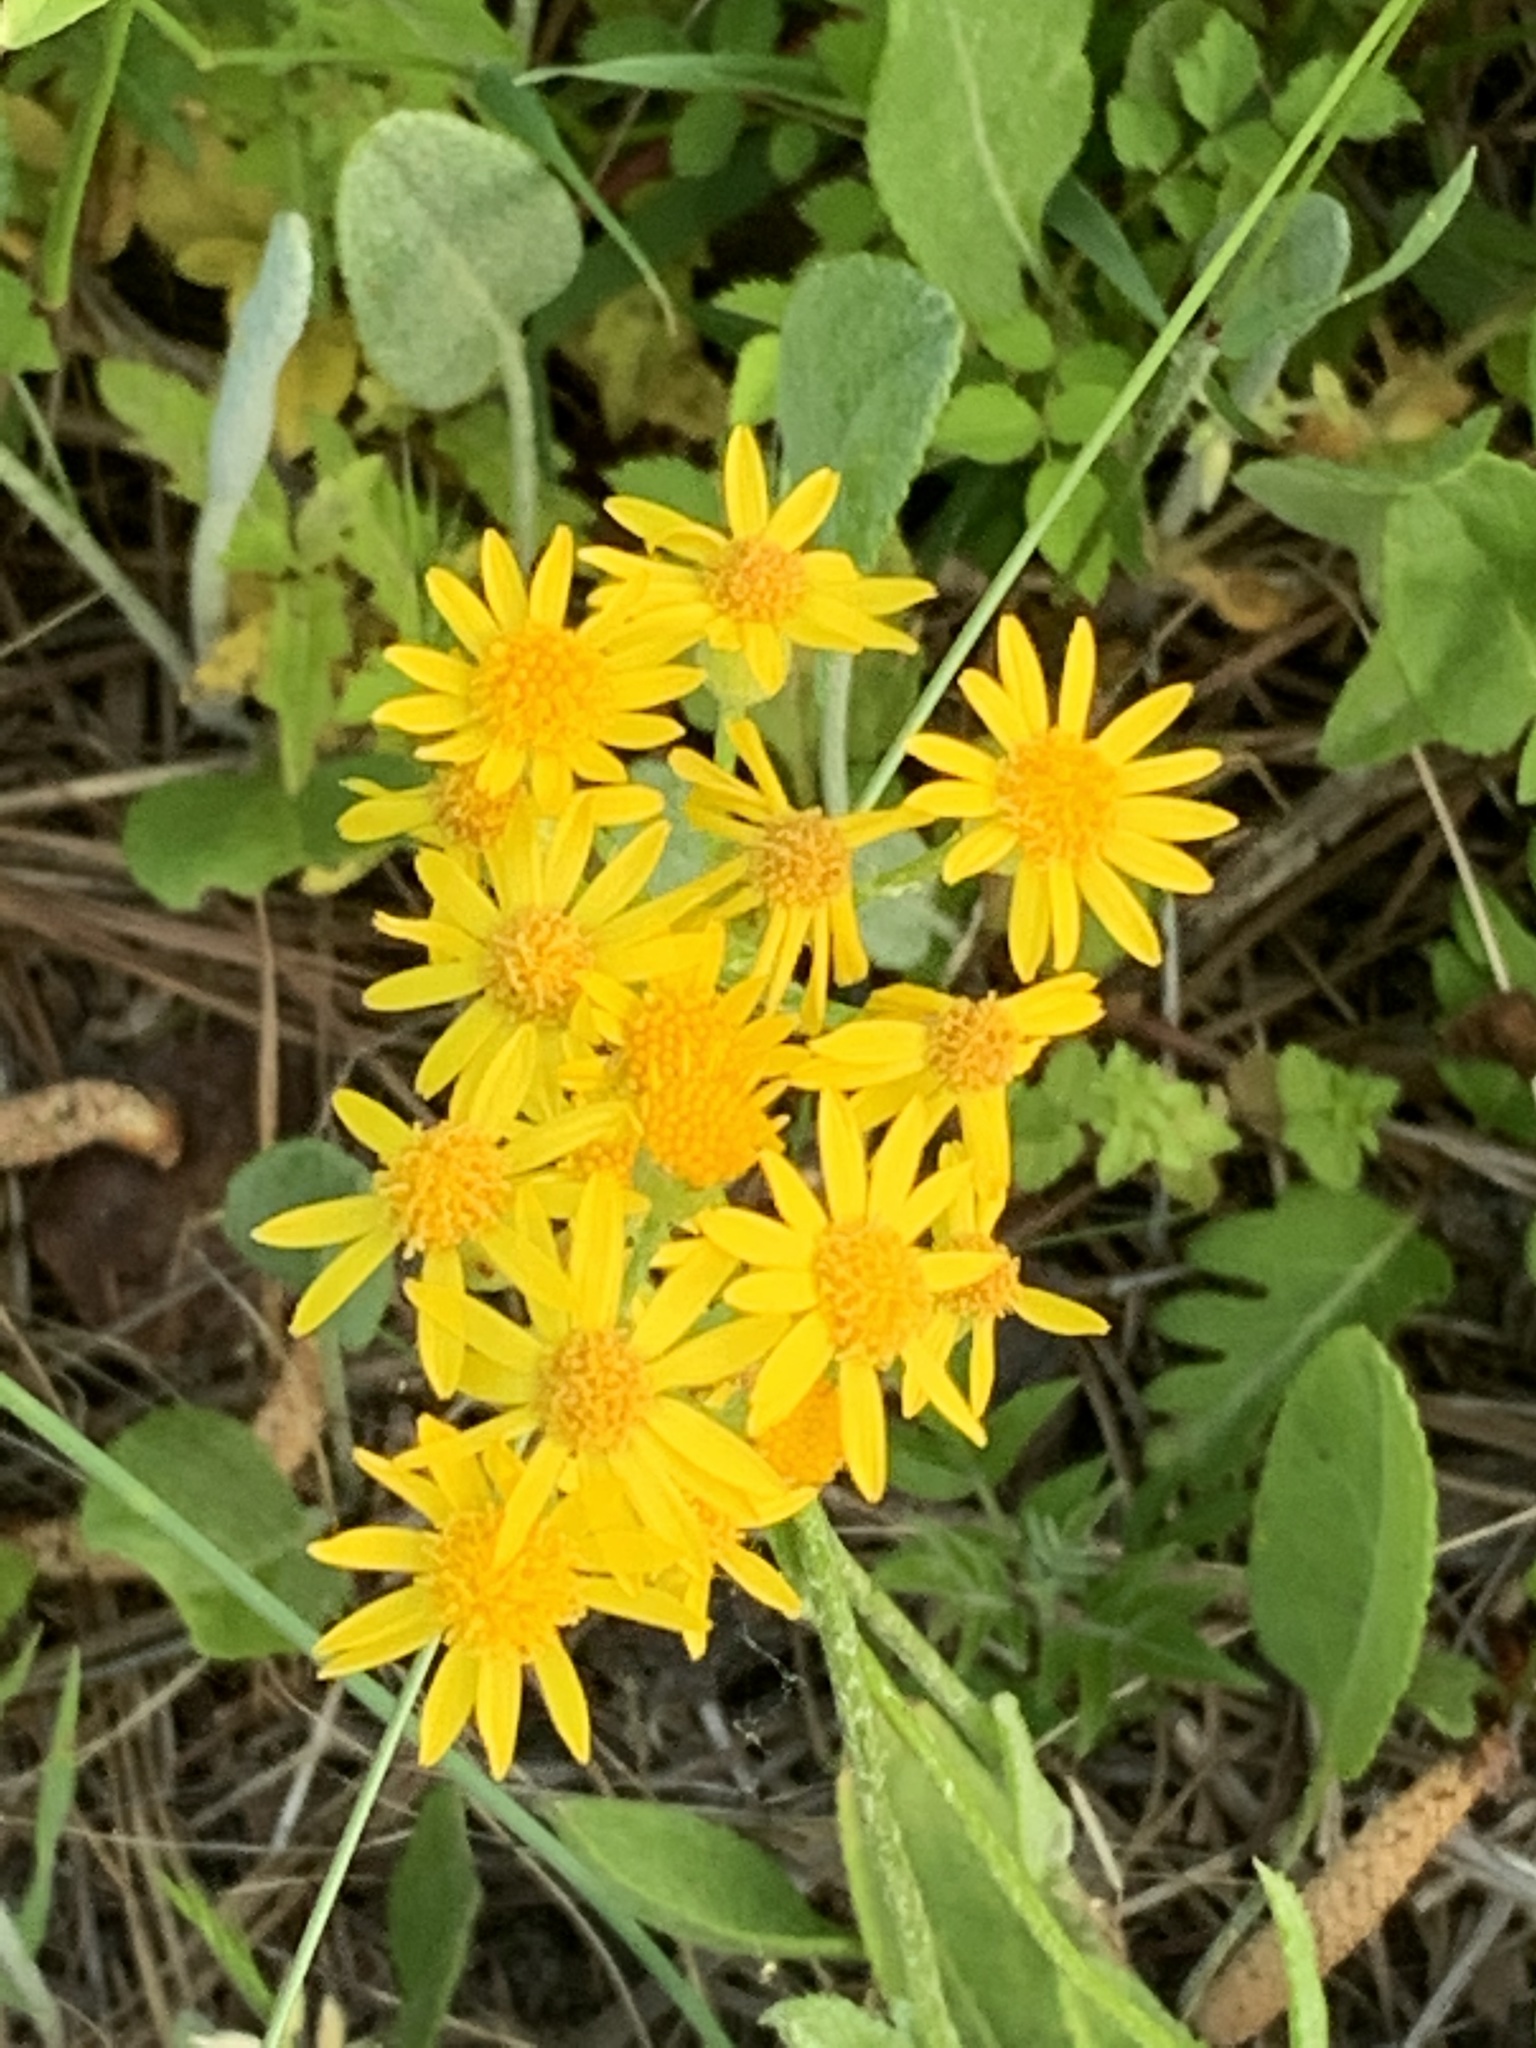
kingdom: Plantae
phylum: Tracheophyta
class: Magnoliopsida
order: Asterales
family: Asteraceae
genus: Packera
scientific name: Packera obovata
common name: Round-leaf ragwort
